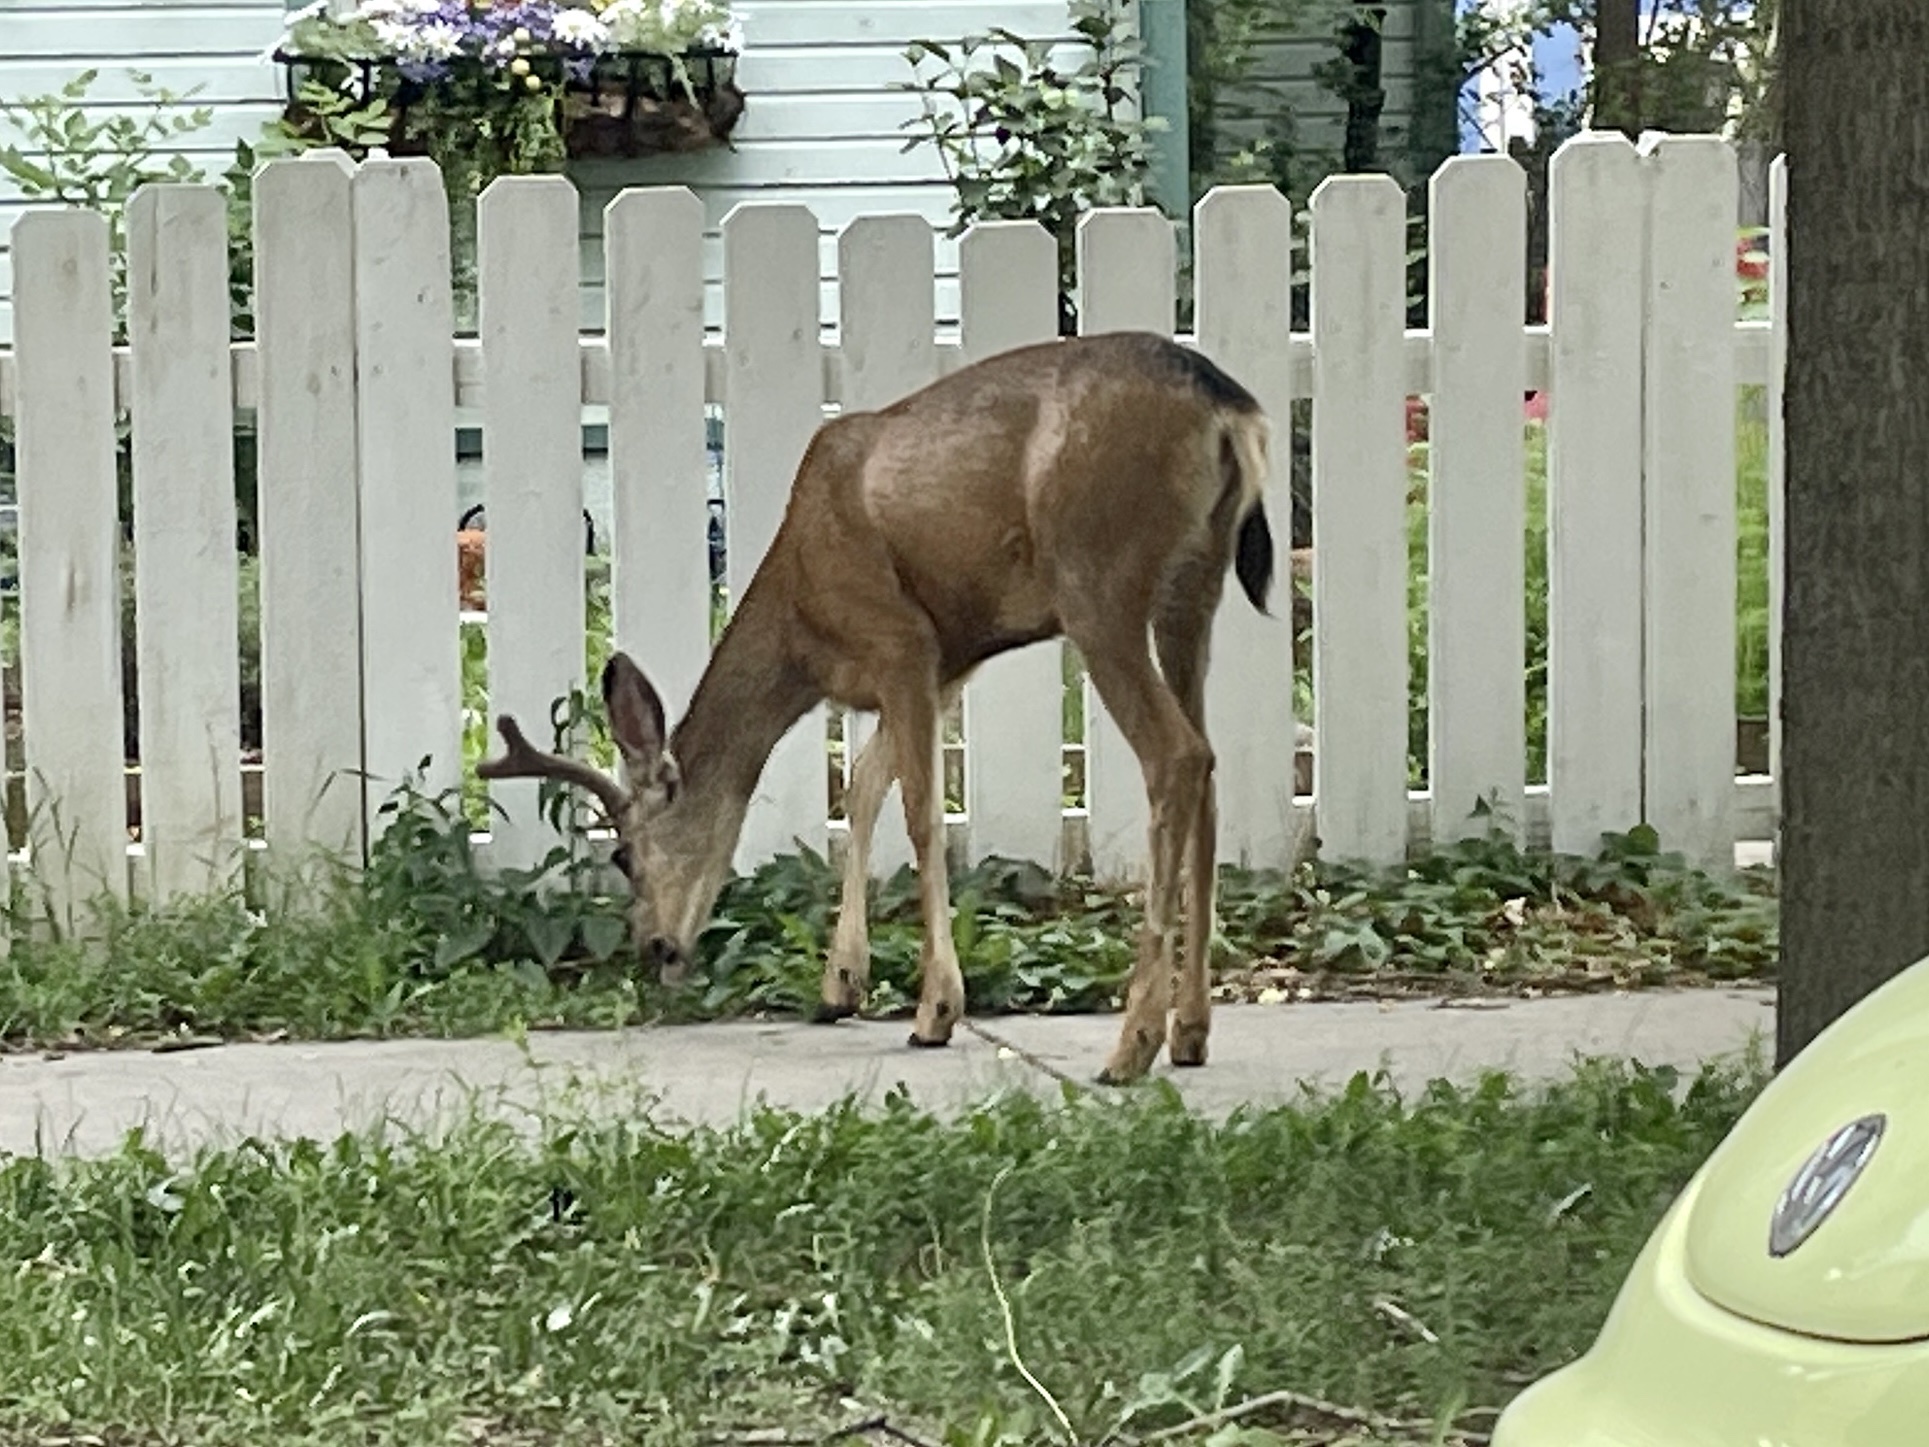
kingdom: Animalia
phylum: Chordata
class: Mammalia
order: Artiodactyla
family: Cervidae
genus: Odocoileus
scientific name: Odocoileus hemionus
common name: Mule deer
